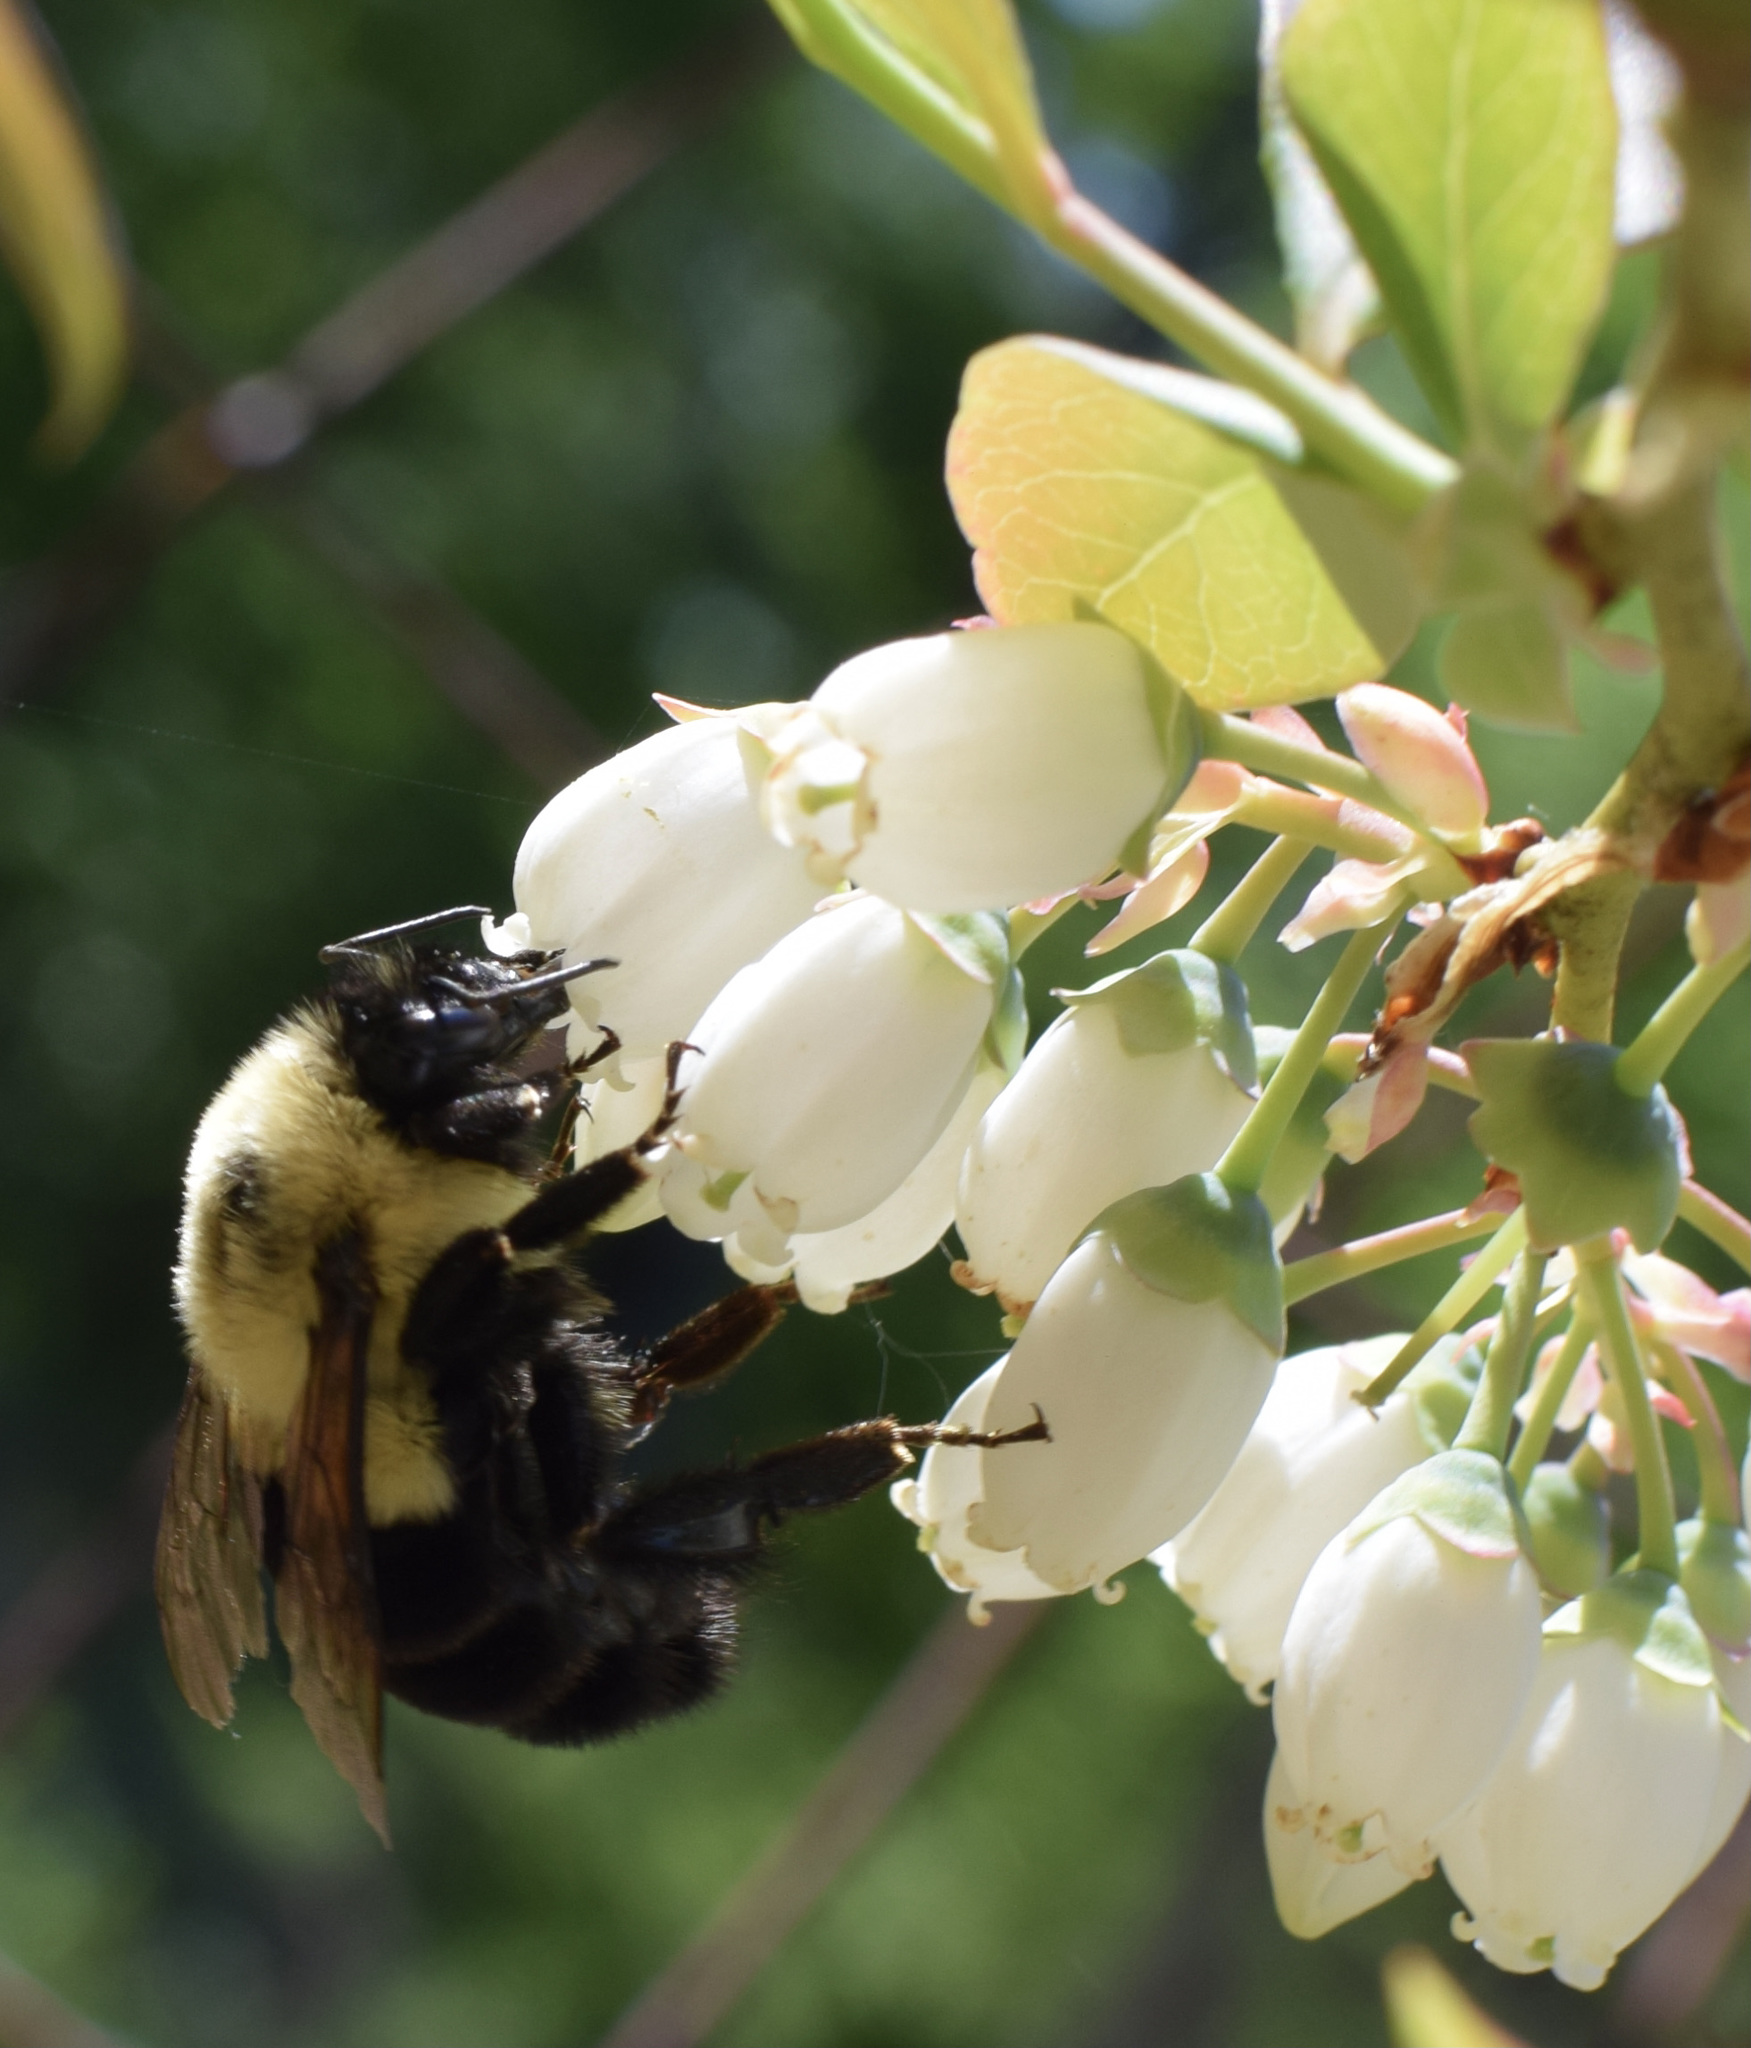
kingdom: Animalia
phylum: Arthropoda
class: Insecta
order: Hymenoptera
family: Apidae
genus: Bombus
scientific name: Bombus impatiens
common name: Common eastern bumble bee
